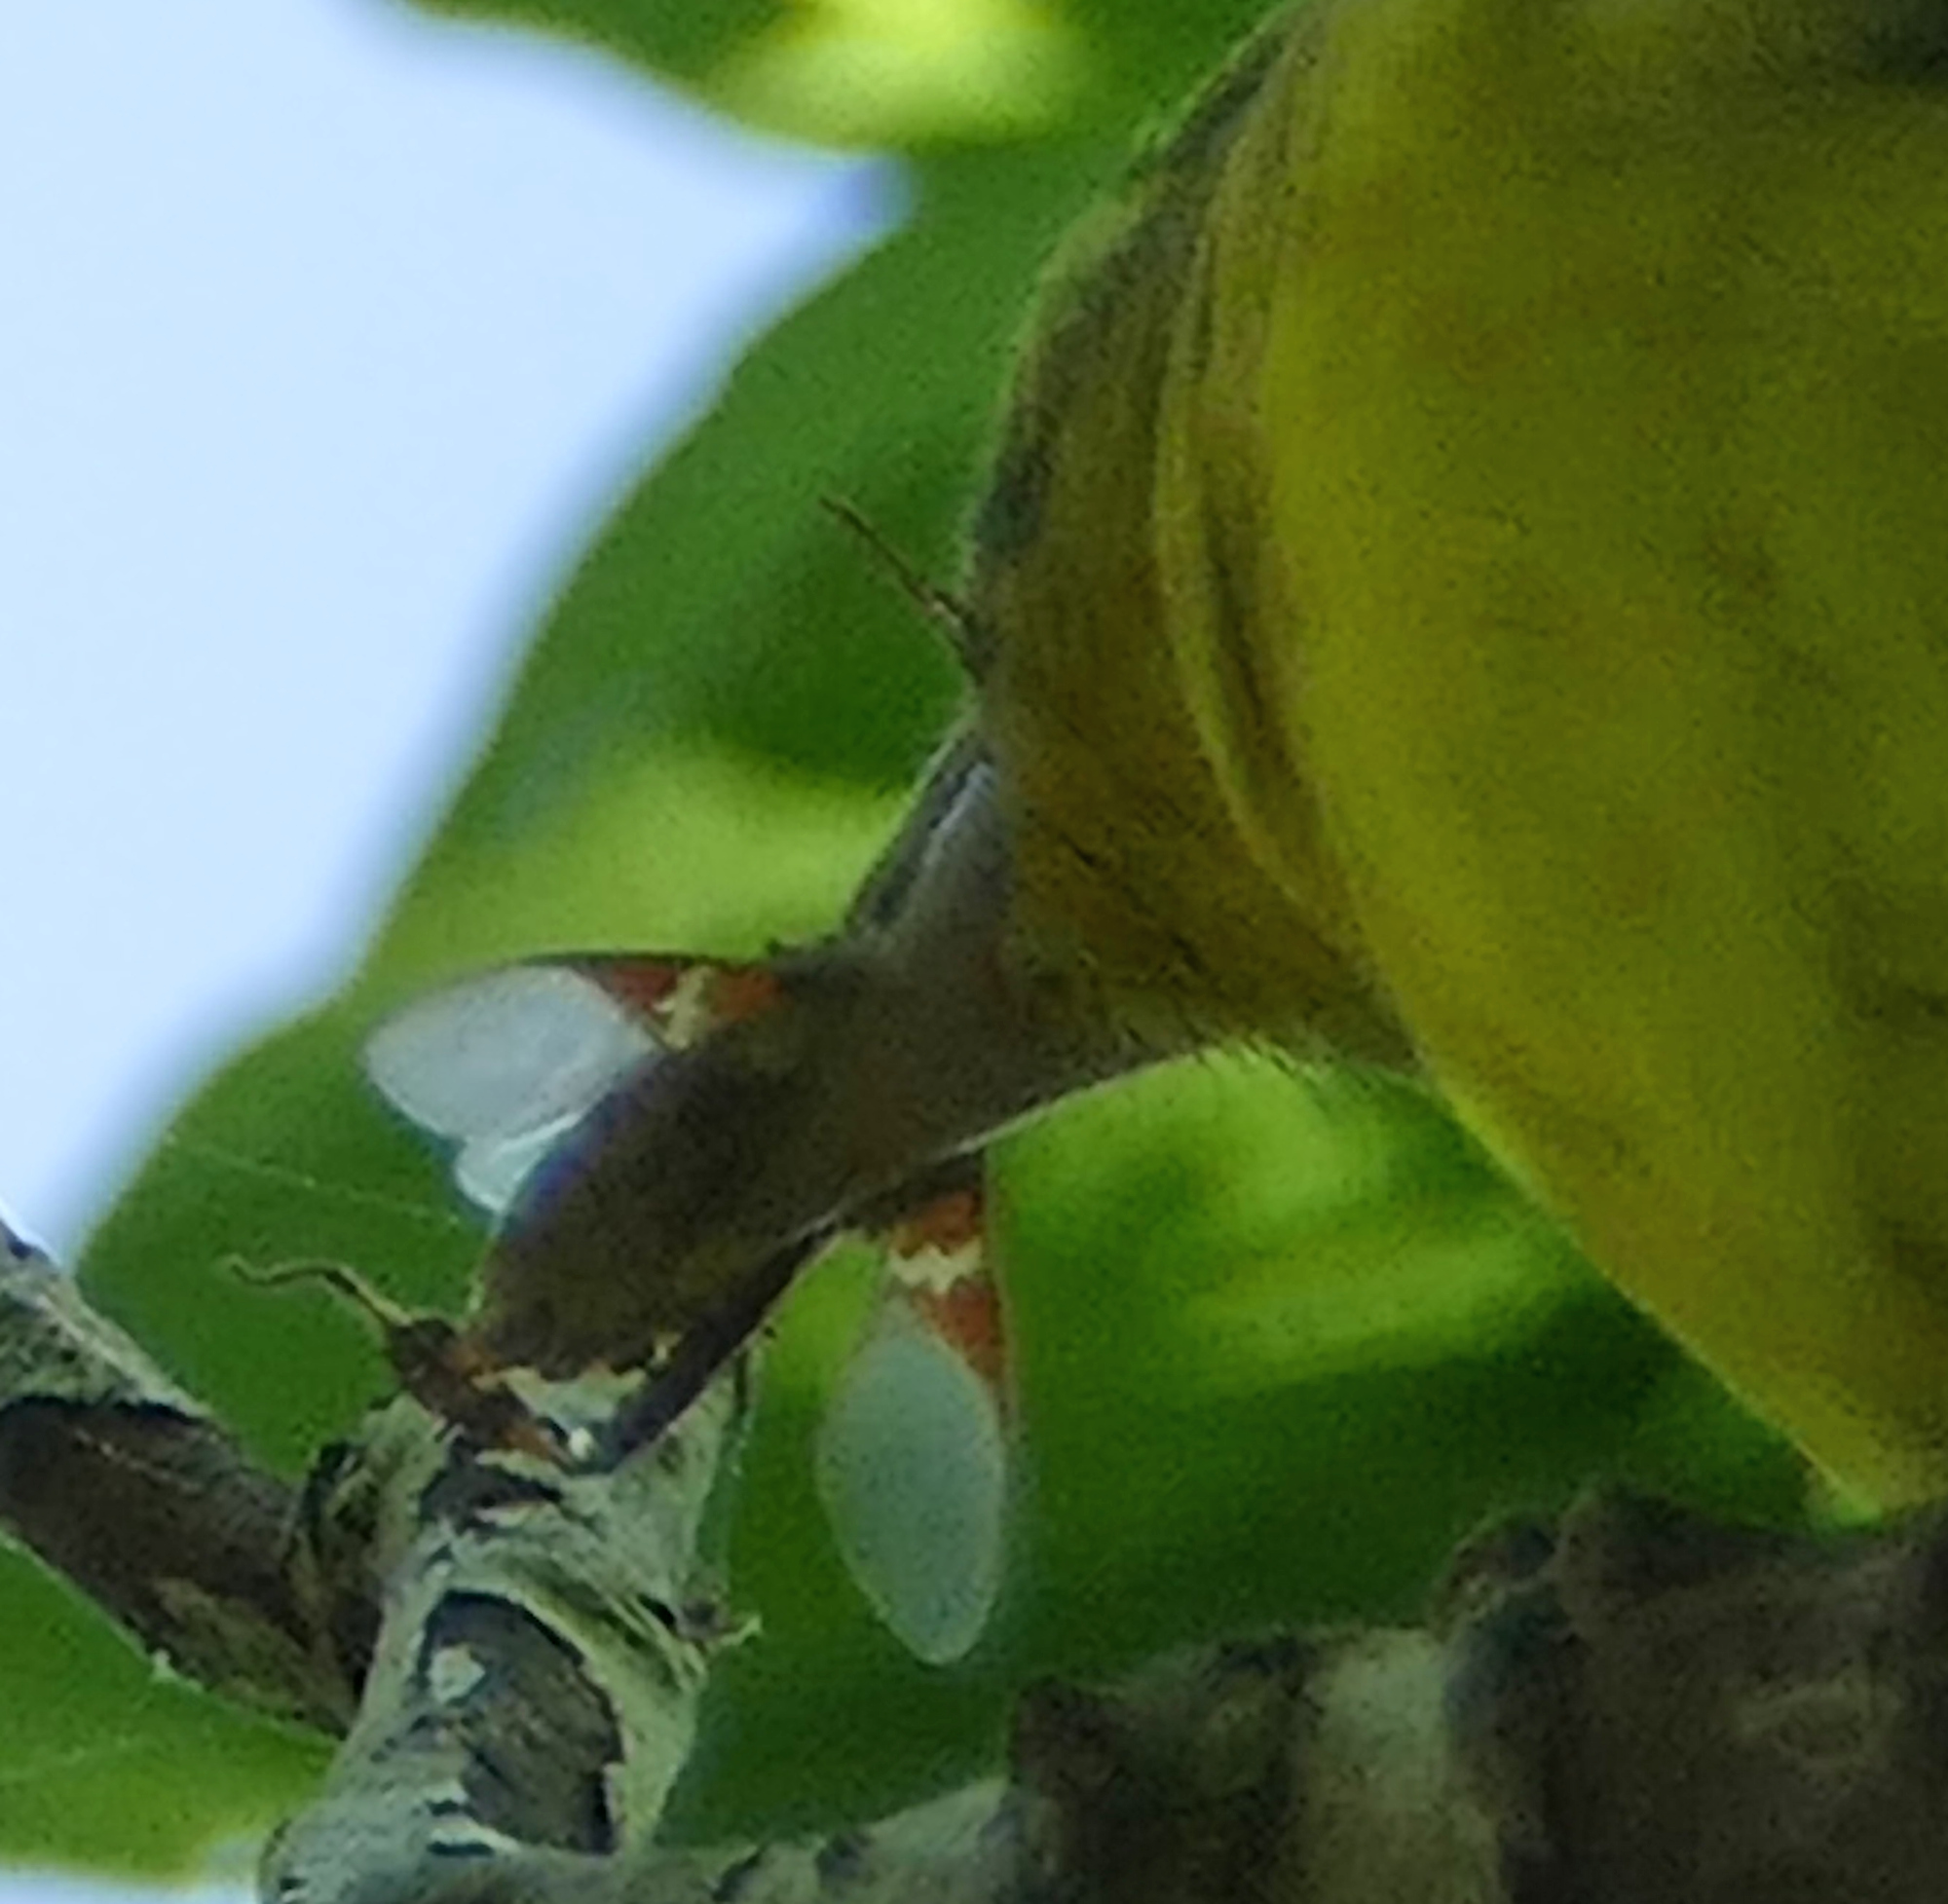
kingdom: Animalia
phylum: Arthropoda
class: Insecta
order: Hemiptera
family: Coreidae
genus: Leptoglossus
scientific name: Leptoglossus clypealis
